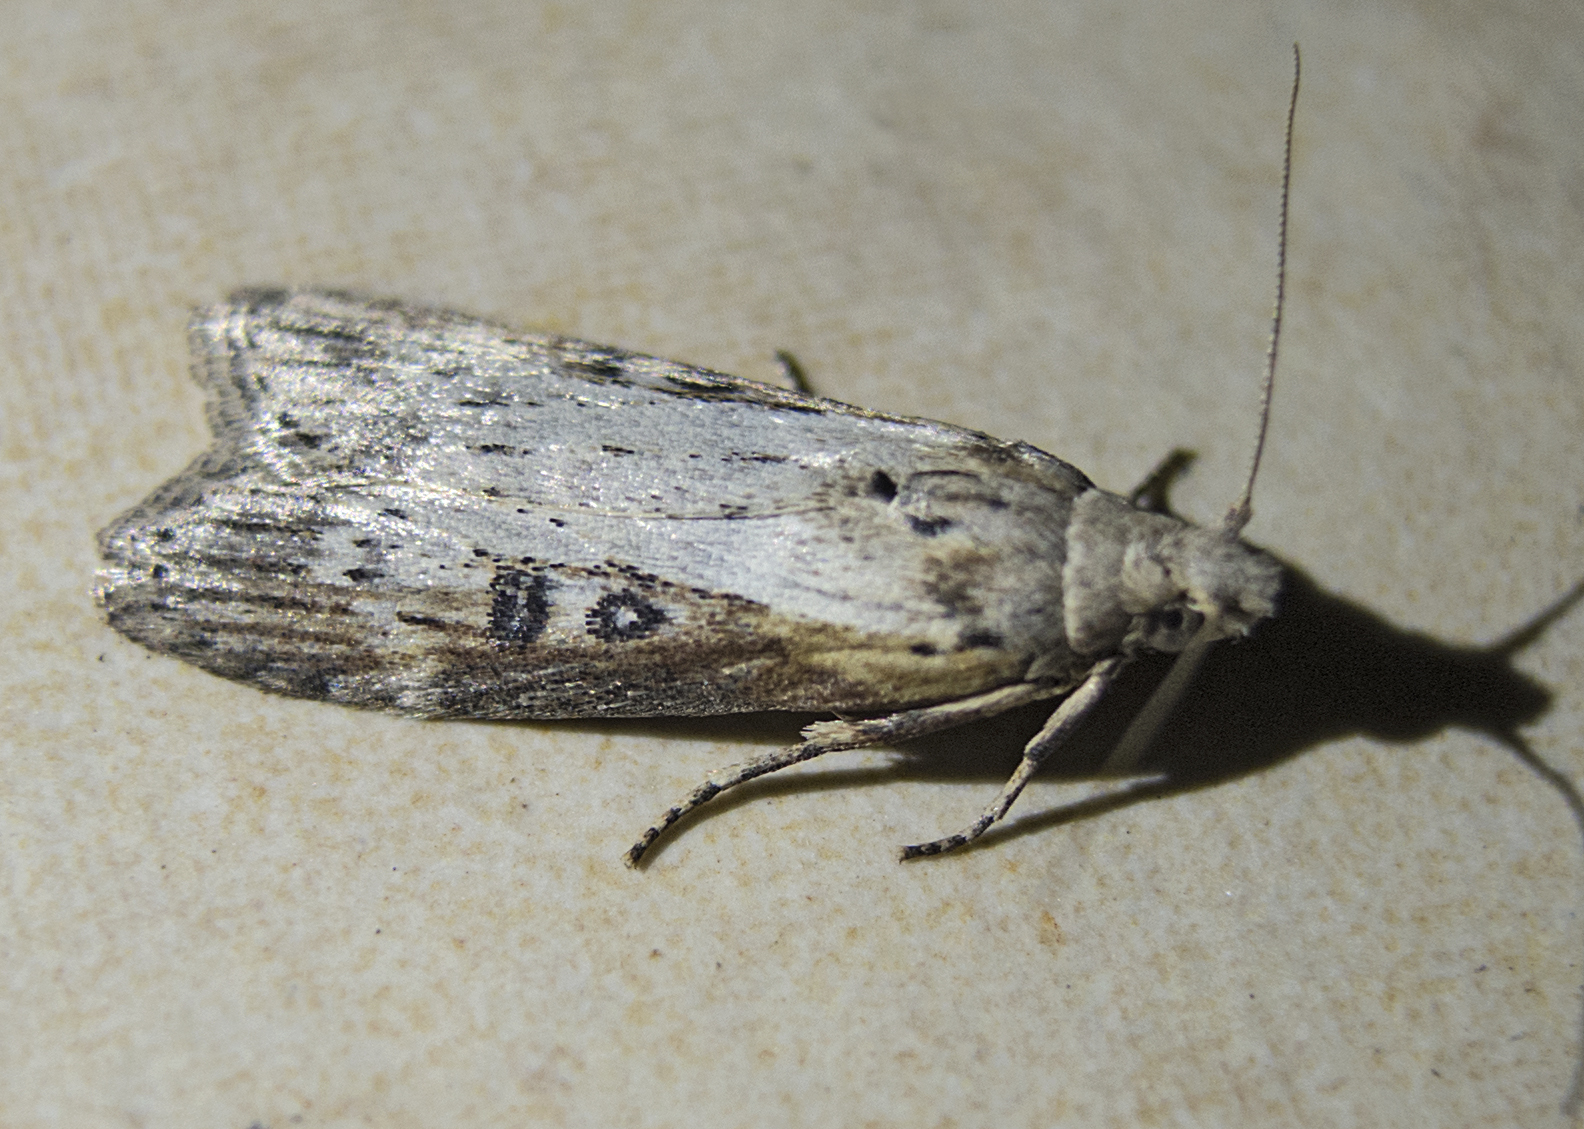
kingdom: Animalia
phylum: Arthropoda
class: Insecta
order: Lepidoptera
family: Pyralidae
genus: Lamoria
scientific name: Lamoria anella
